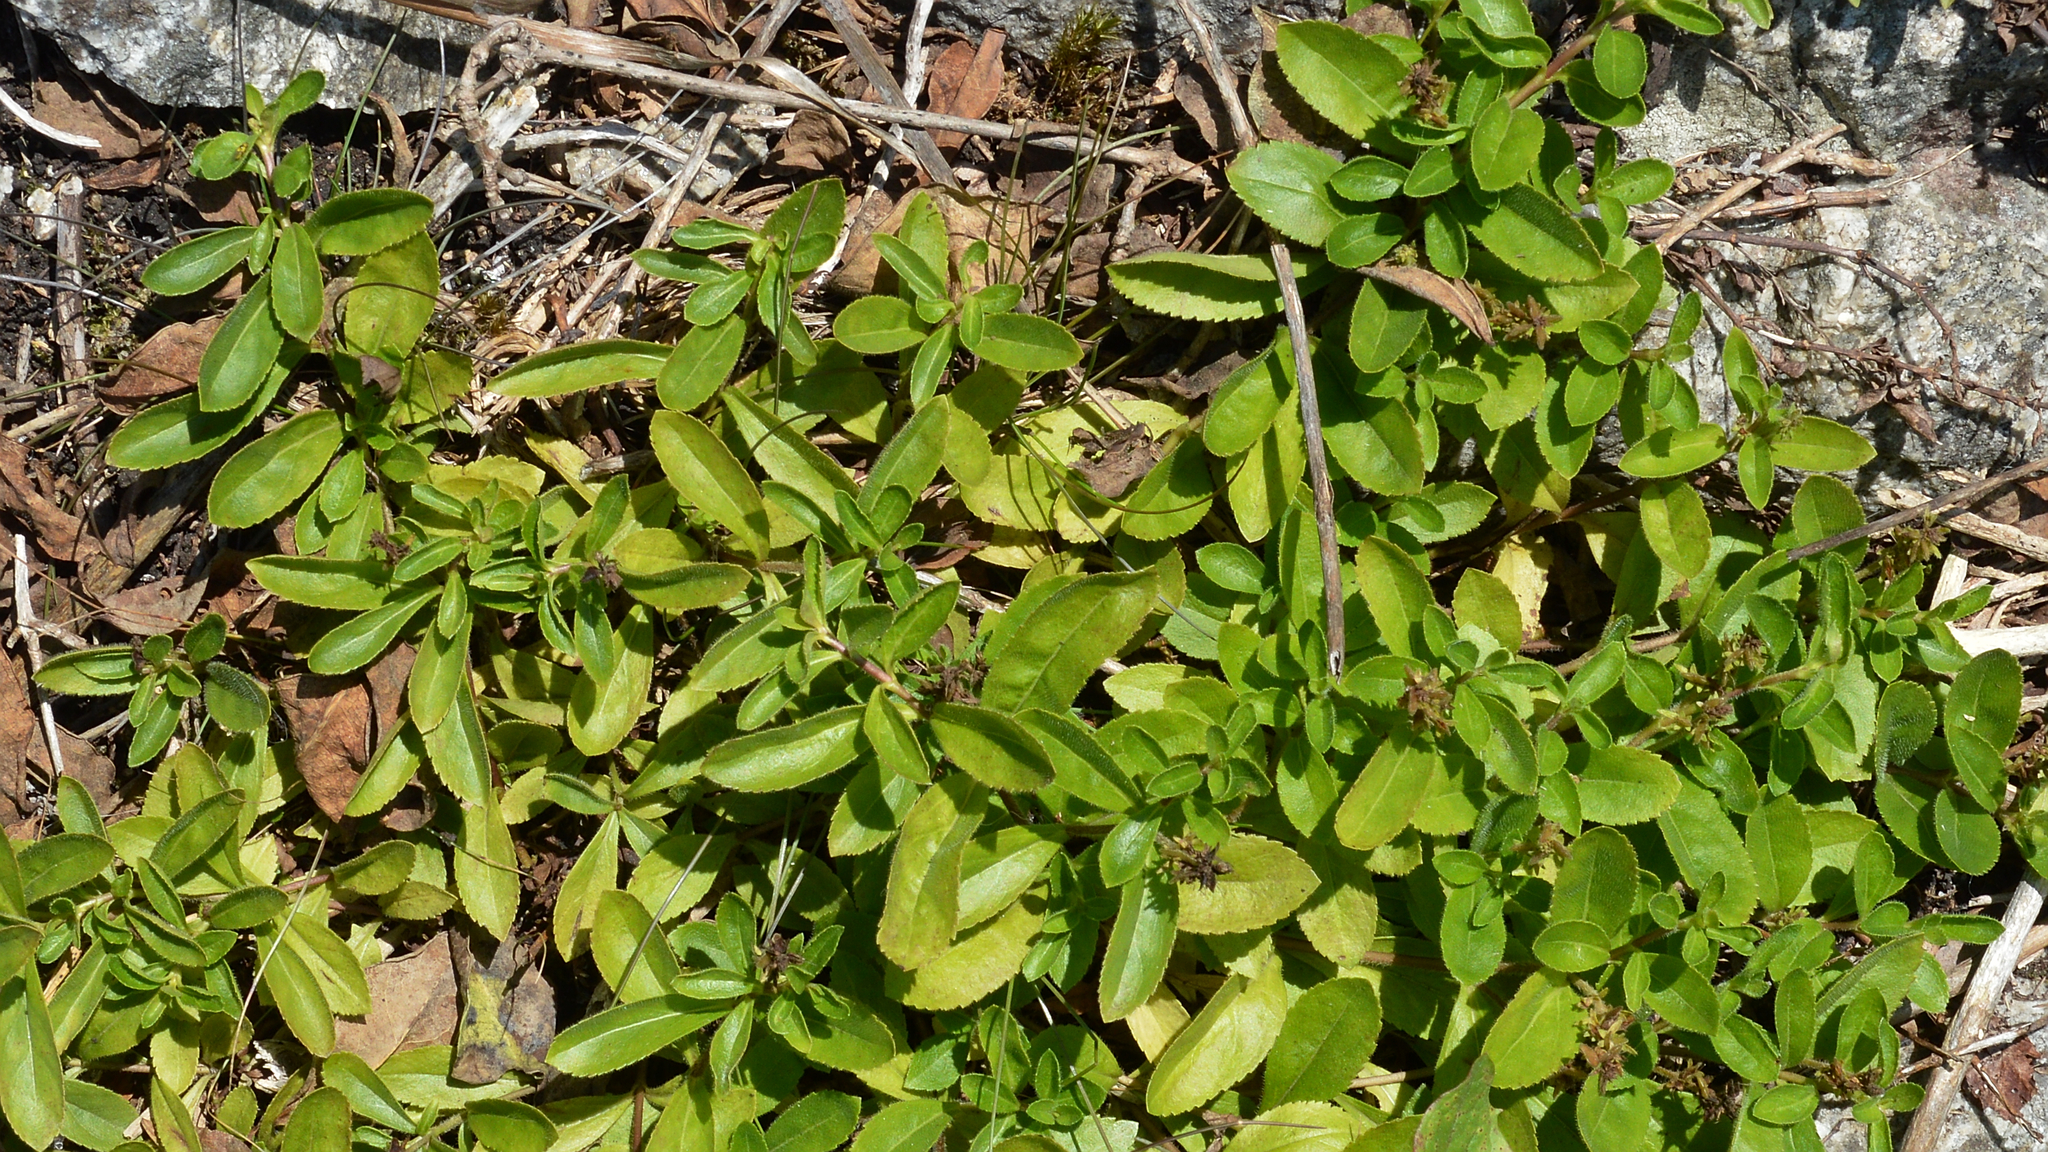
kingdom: Plantae
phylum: Tracheophyta
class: Magnoliopsida
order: Lamiales
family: Plantaginaceae
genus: Veronica
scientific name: Veronica officinalis
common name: Common speedwell
